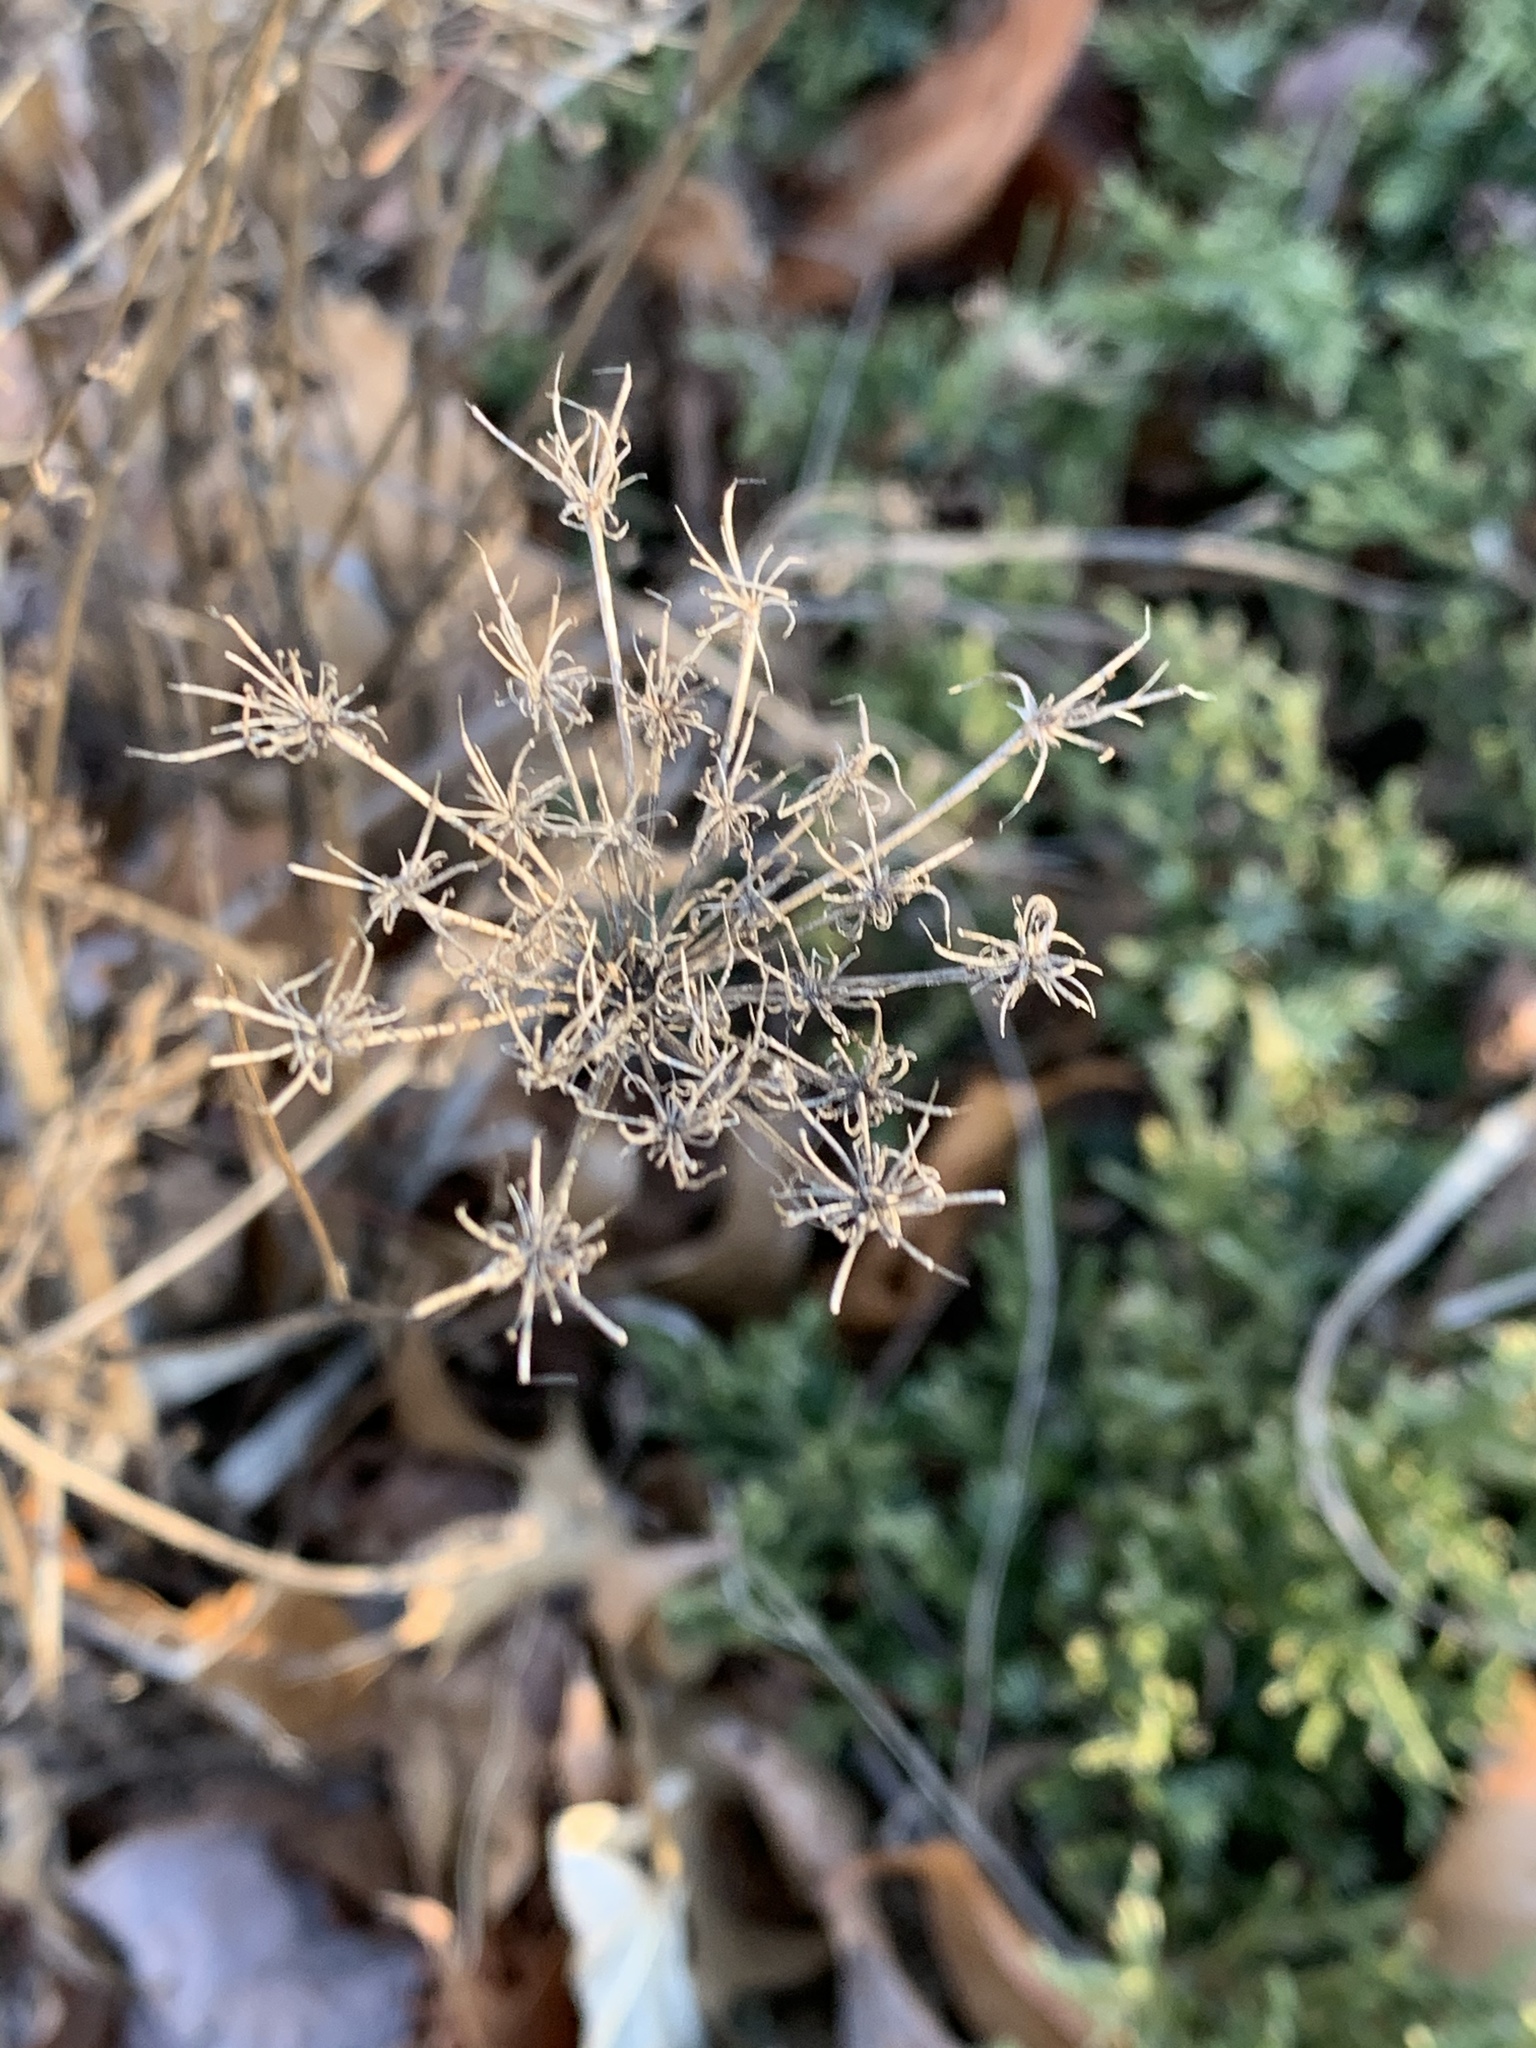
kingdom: Plantae
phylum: Tracheophyta
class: Magnoliopsida
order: Apiales
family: Apiaceae
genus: Daucus
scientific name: Daucus carota
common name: Wild carrot
